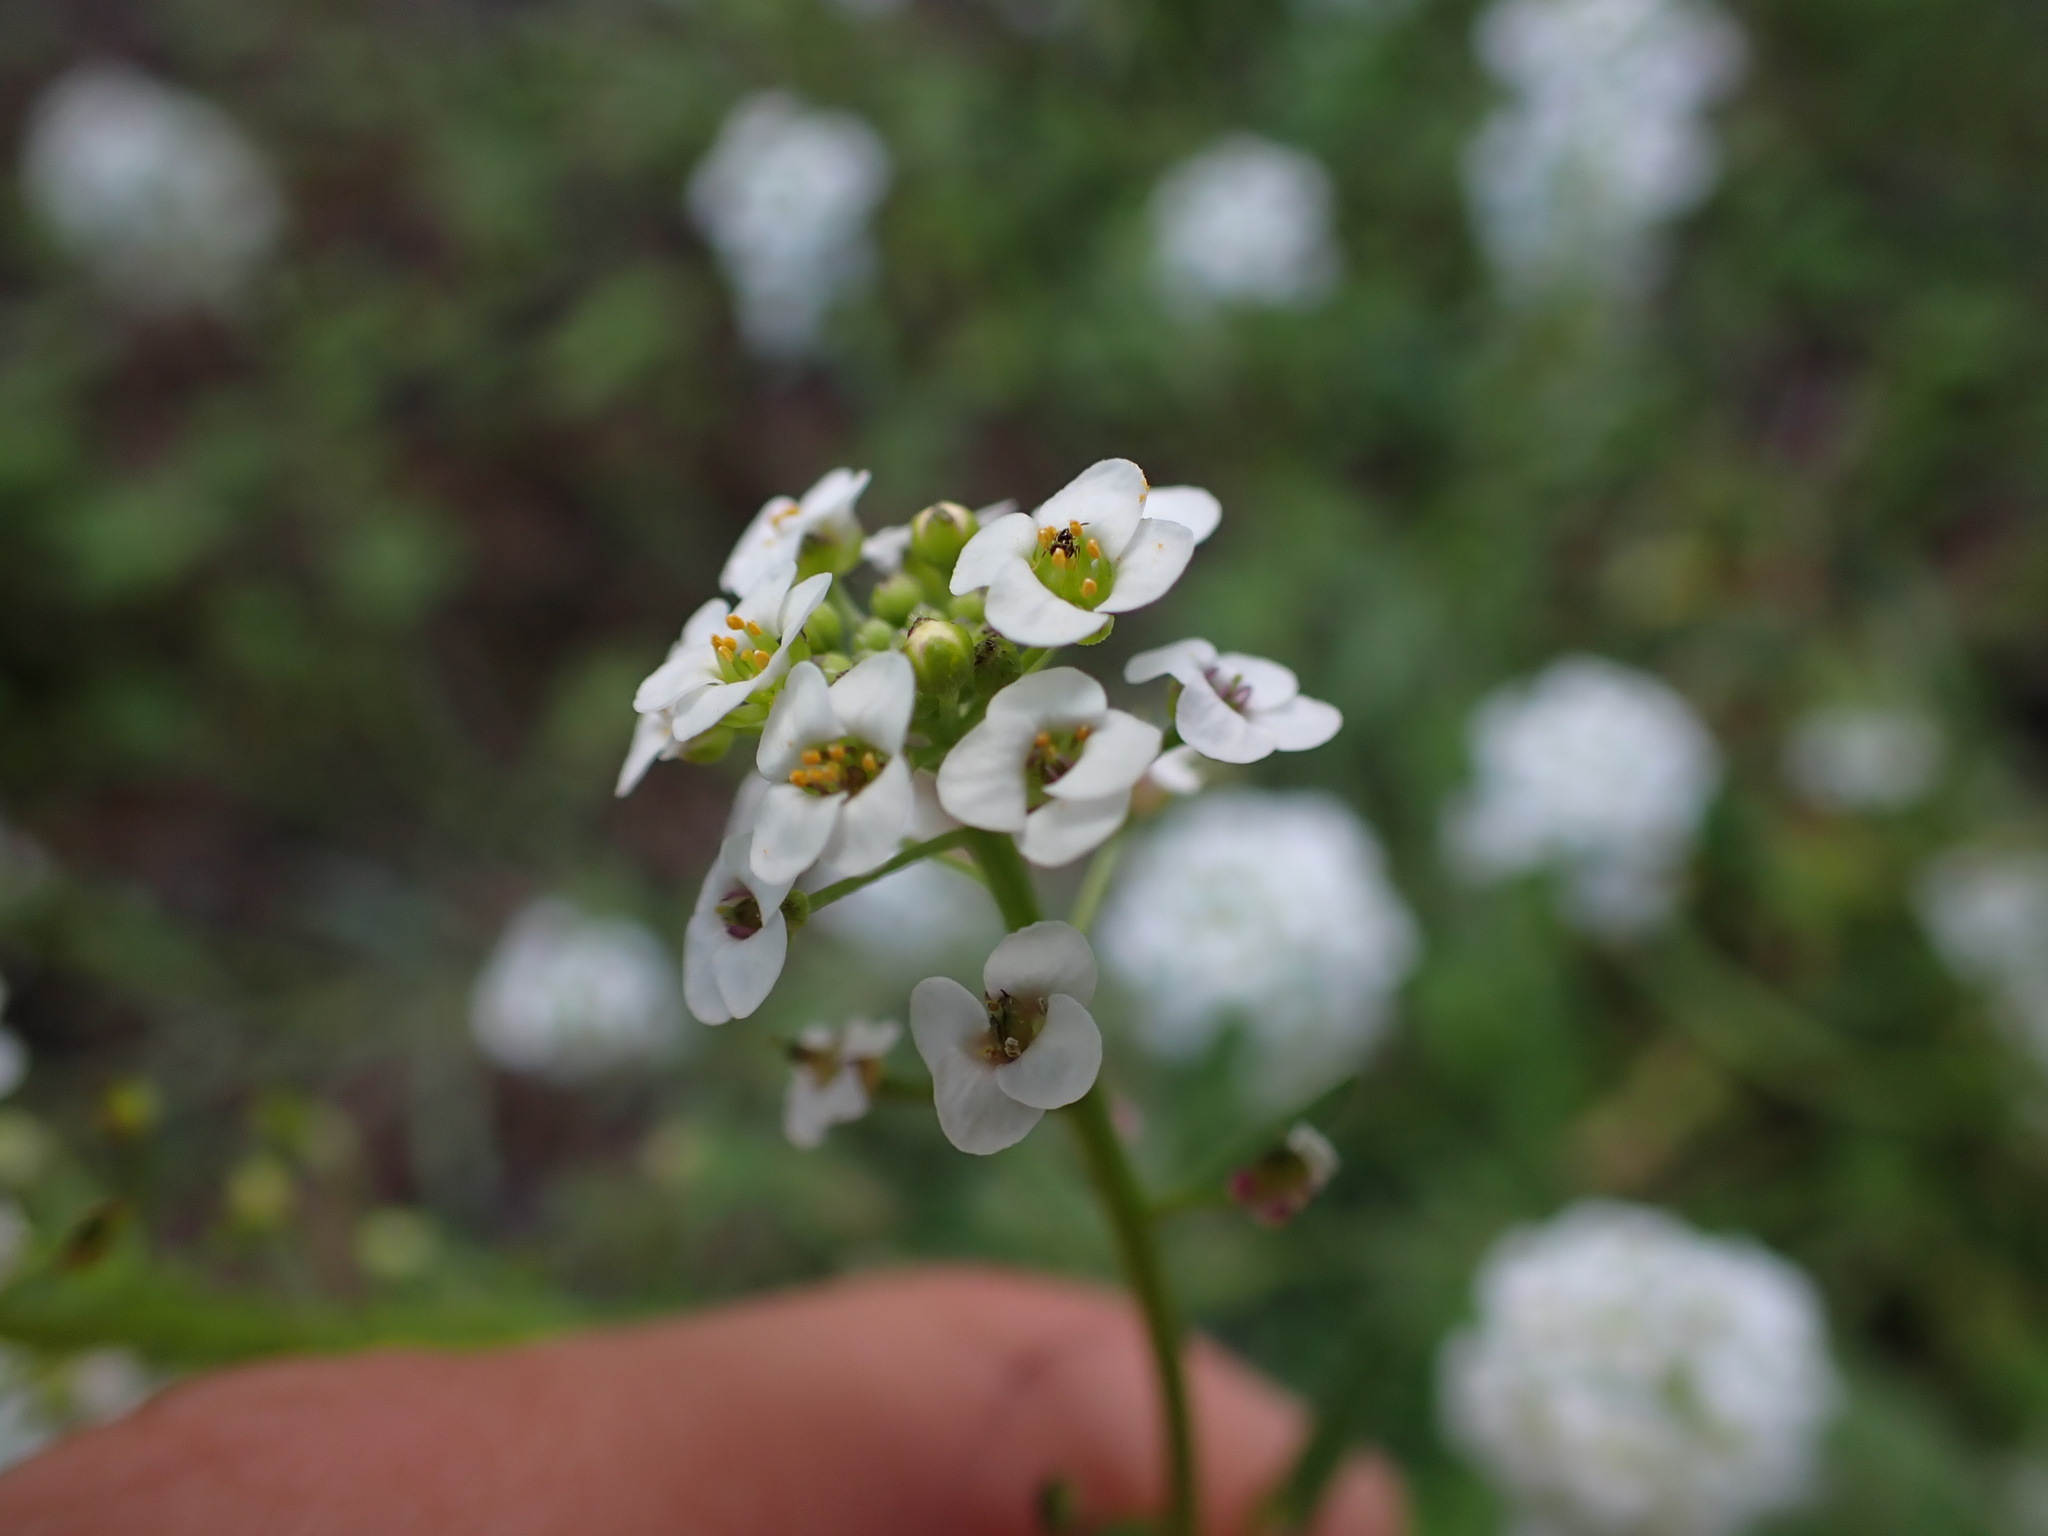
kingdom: Plantae
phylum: Tracheophyta
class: Magnoliopsida
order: Brassicales
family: Brassicaceae
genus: Lobularia
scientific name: Lobularia maritima
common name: Sweet alison
